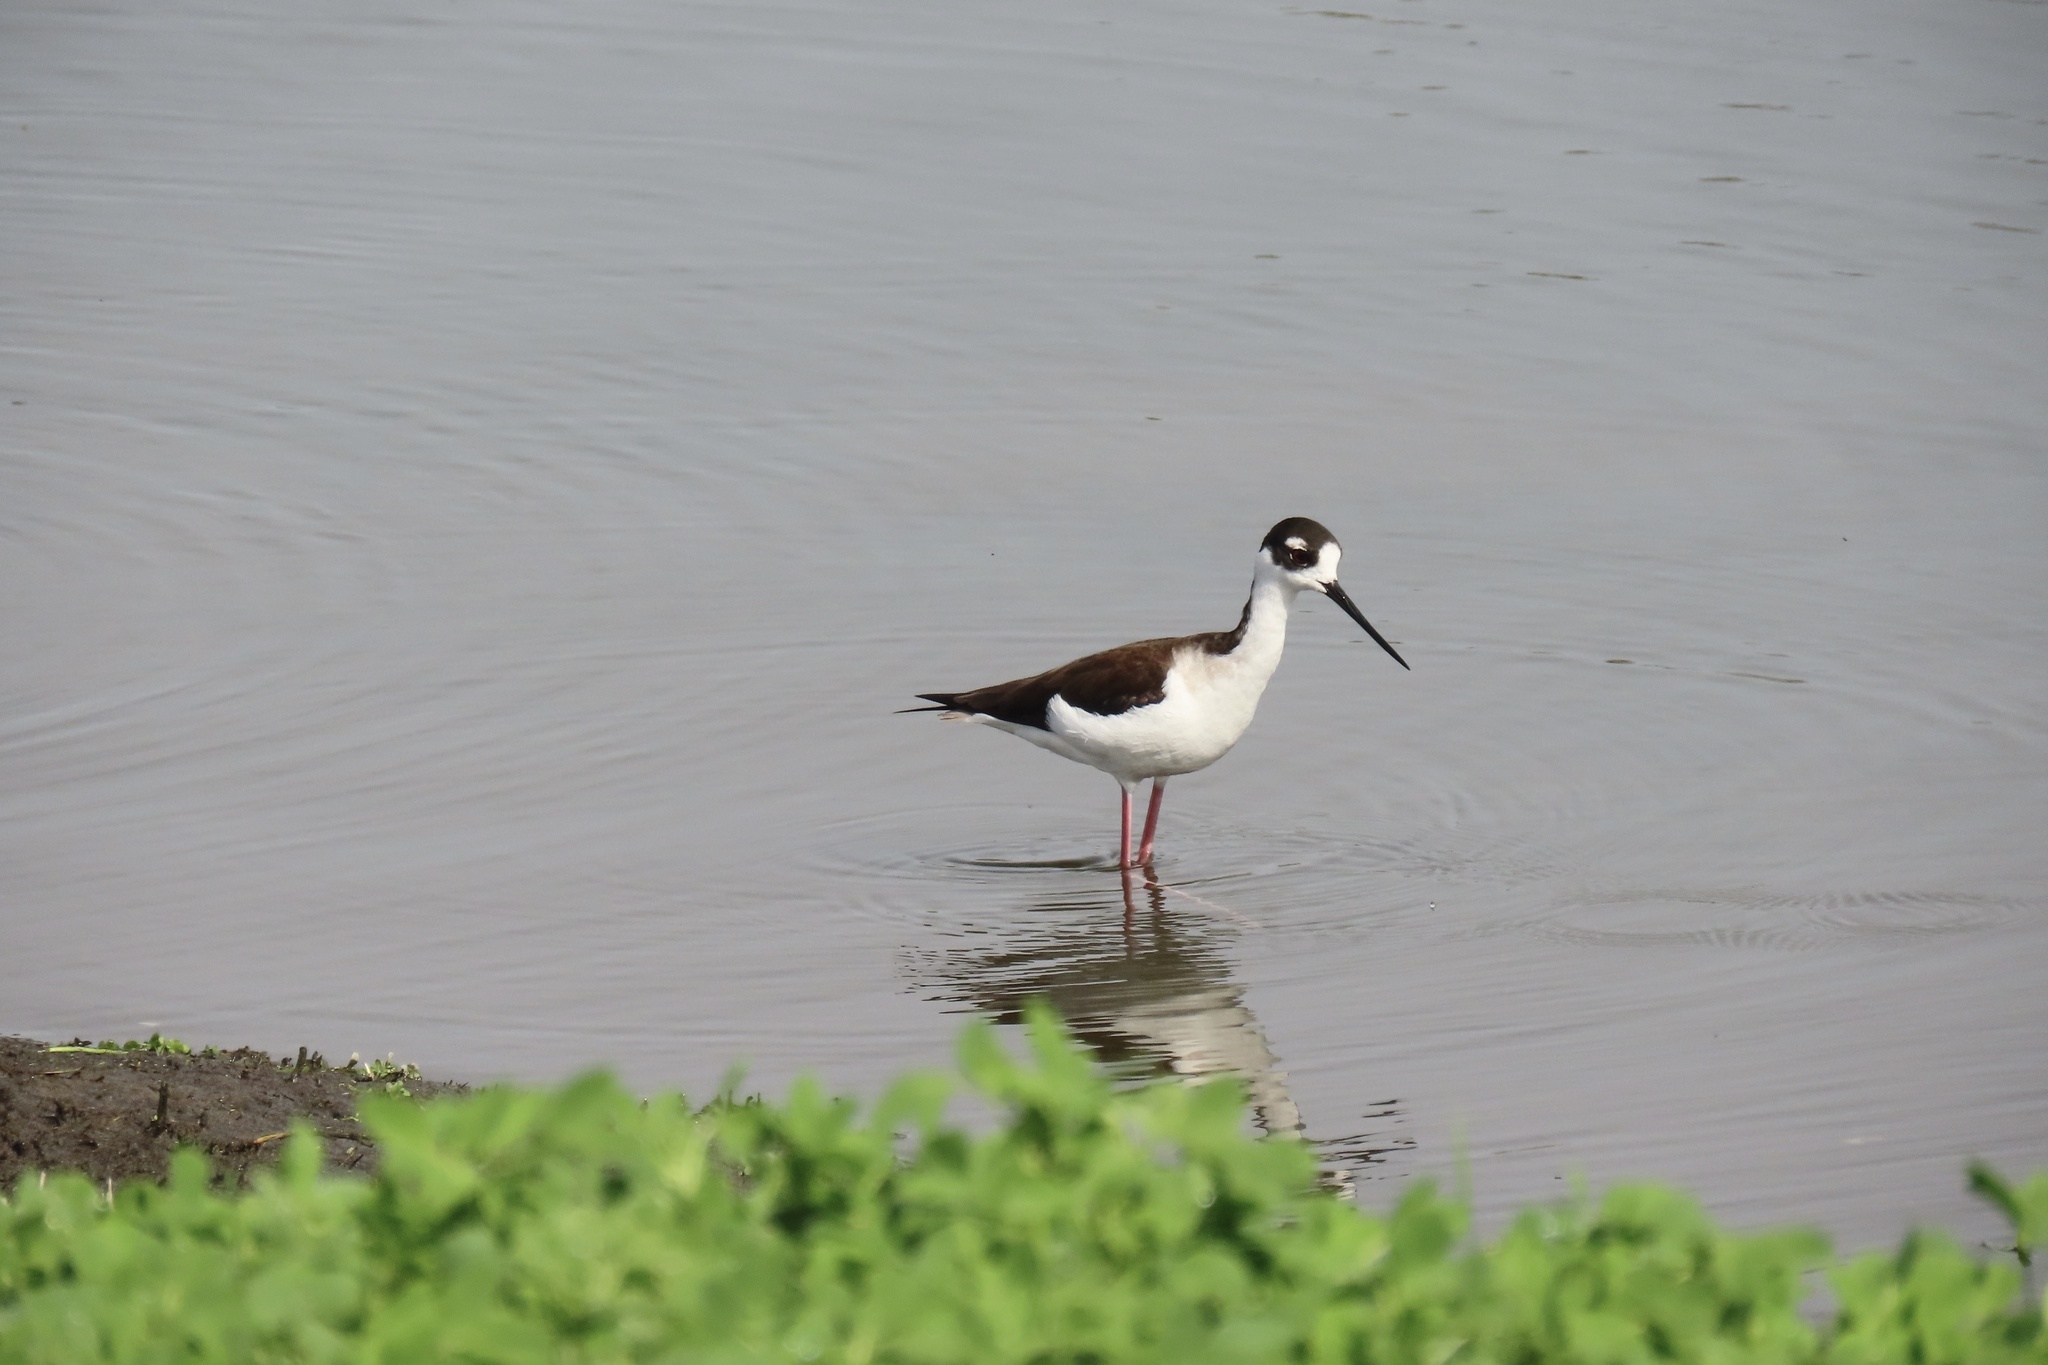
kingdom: Animalia
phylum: Chordata
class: Aves
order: Charadriiformes
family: Recurvirostridae
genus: Himantopus
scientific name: Himantopus mexicanus
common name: Black-necked stilt
